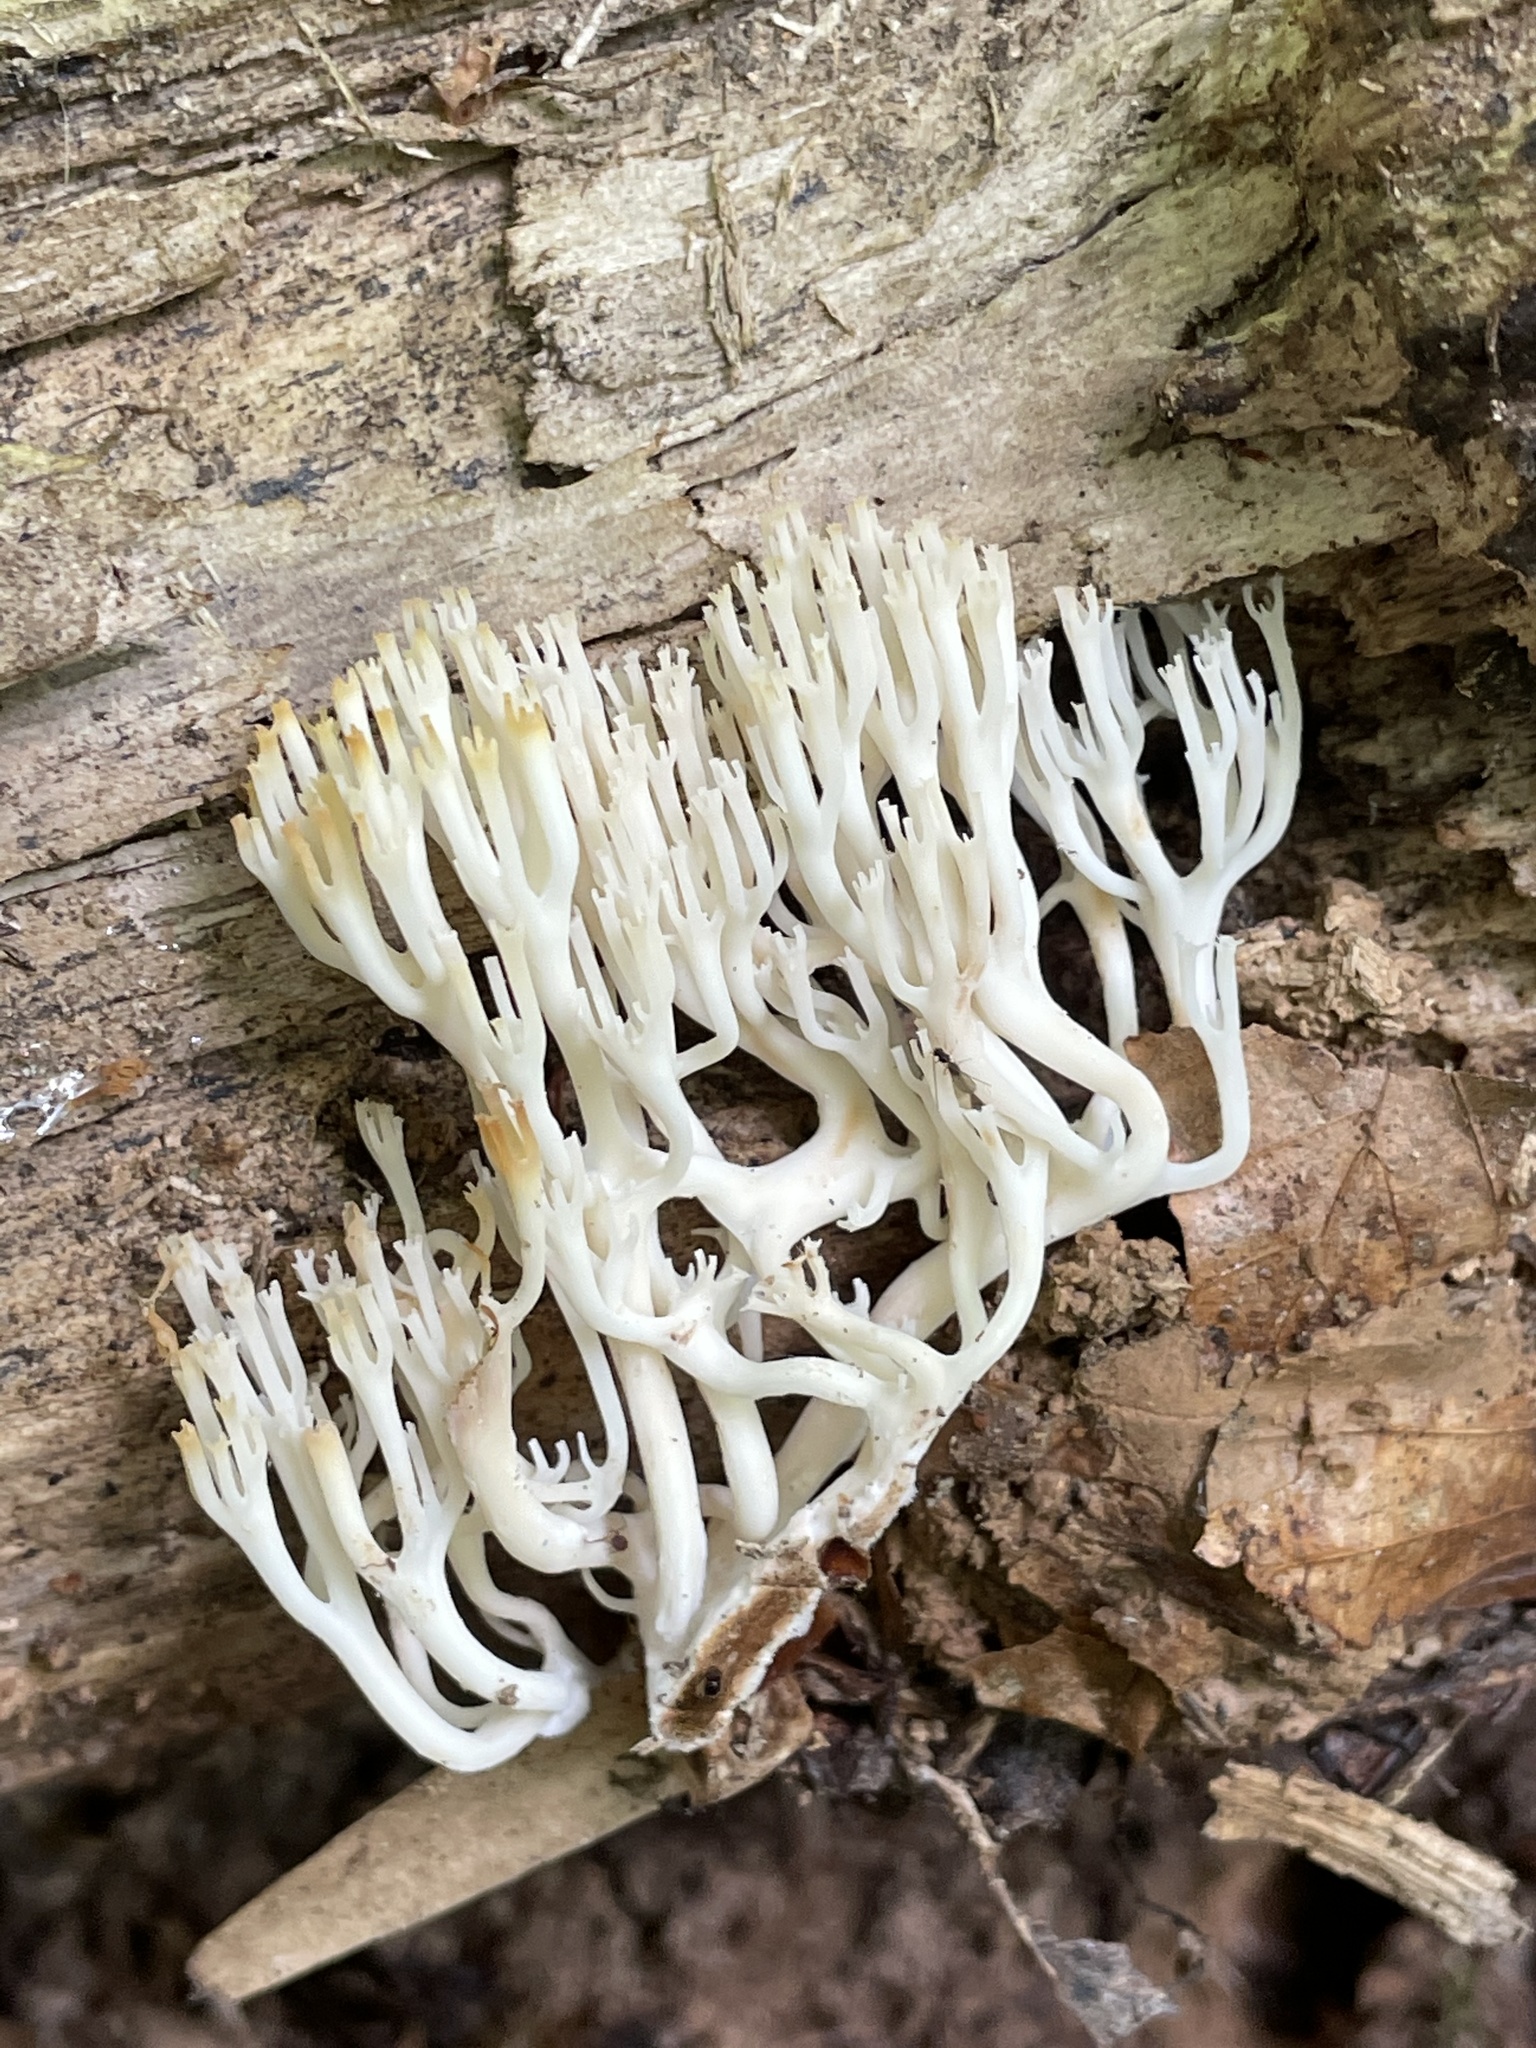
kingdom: Fungi
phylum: Basidiomycota
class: Agaricomycetes
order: Russulales
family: Auriscalpiaceae
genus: Artomyces
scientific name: Artomyces pyxidatus
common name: Crown-tipped coral fungus
